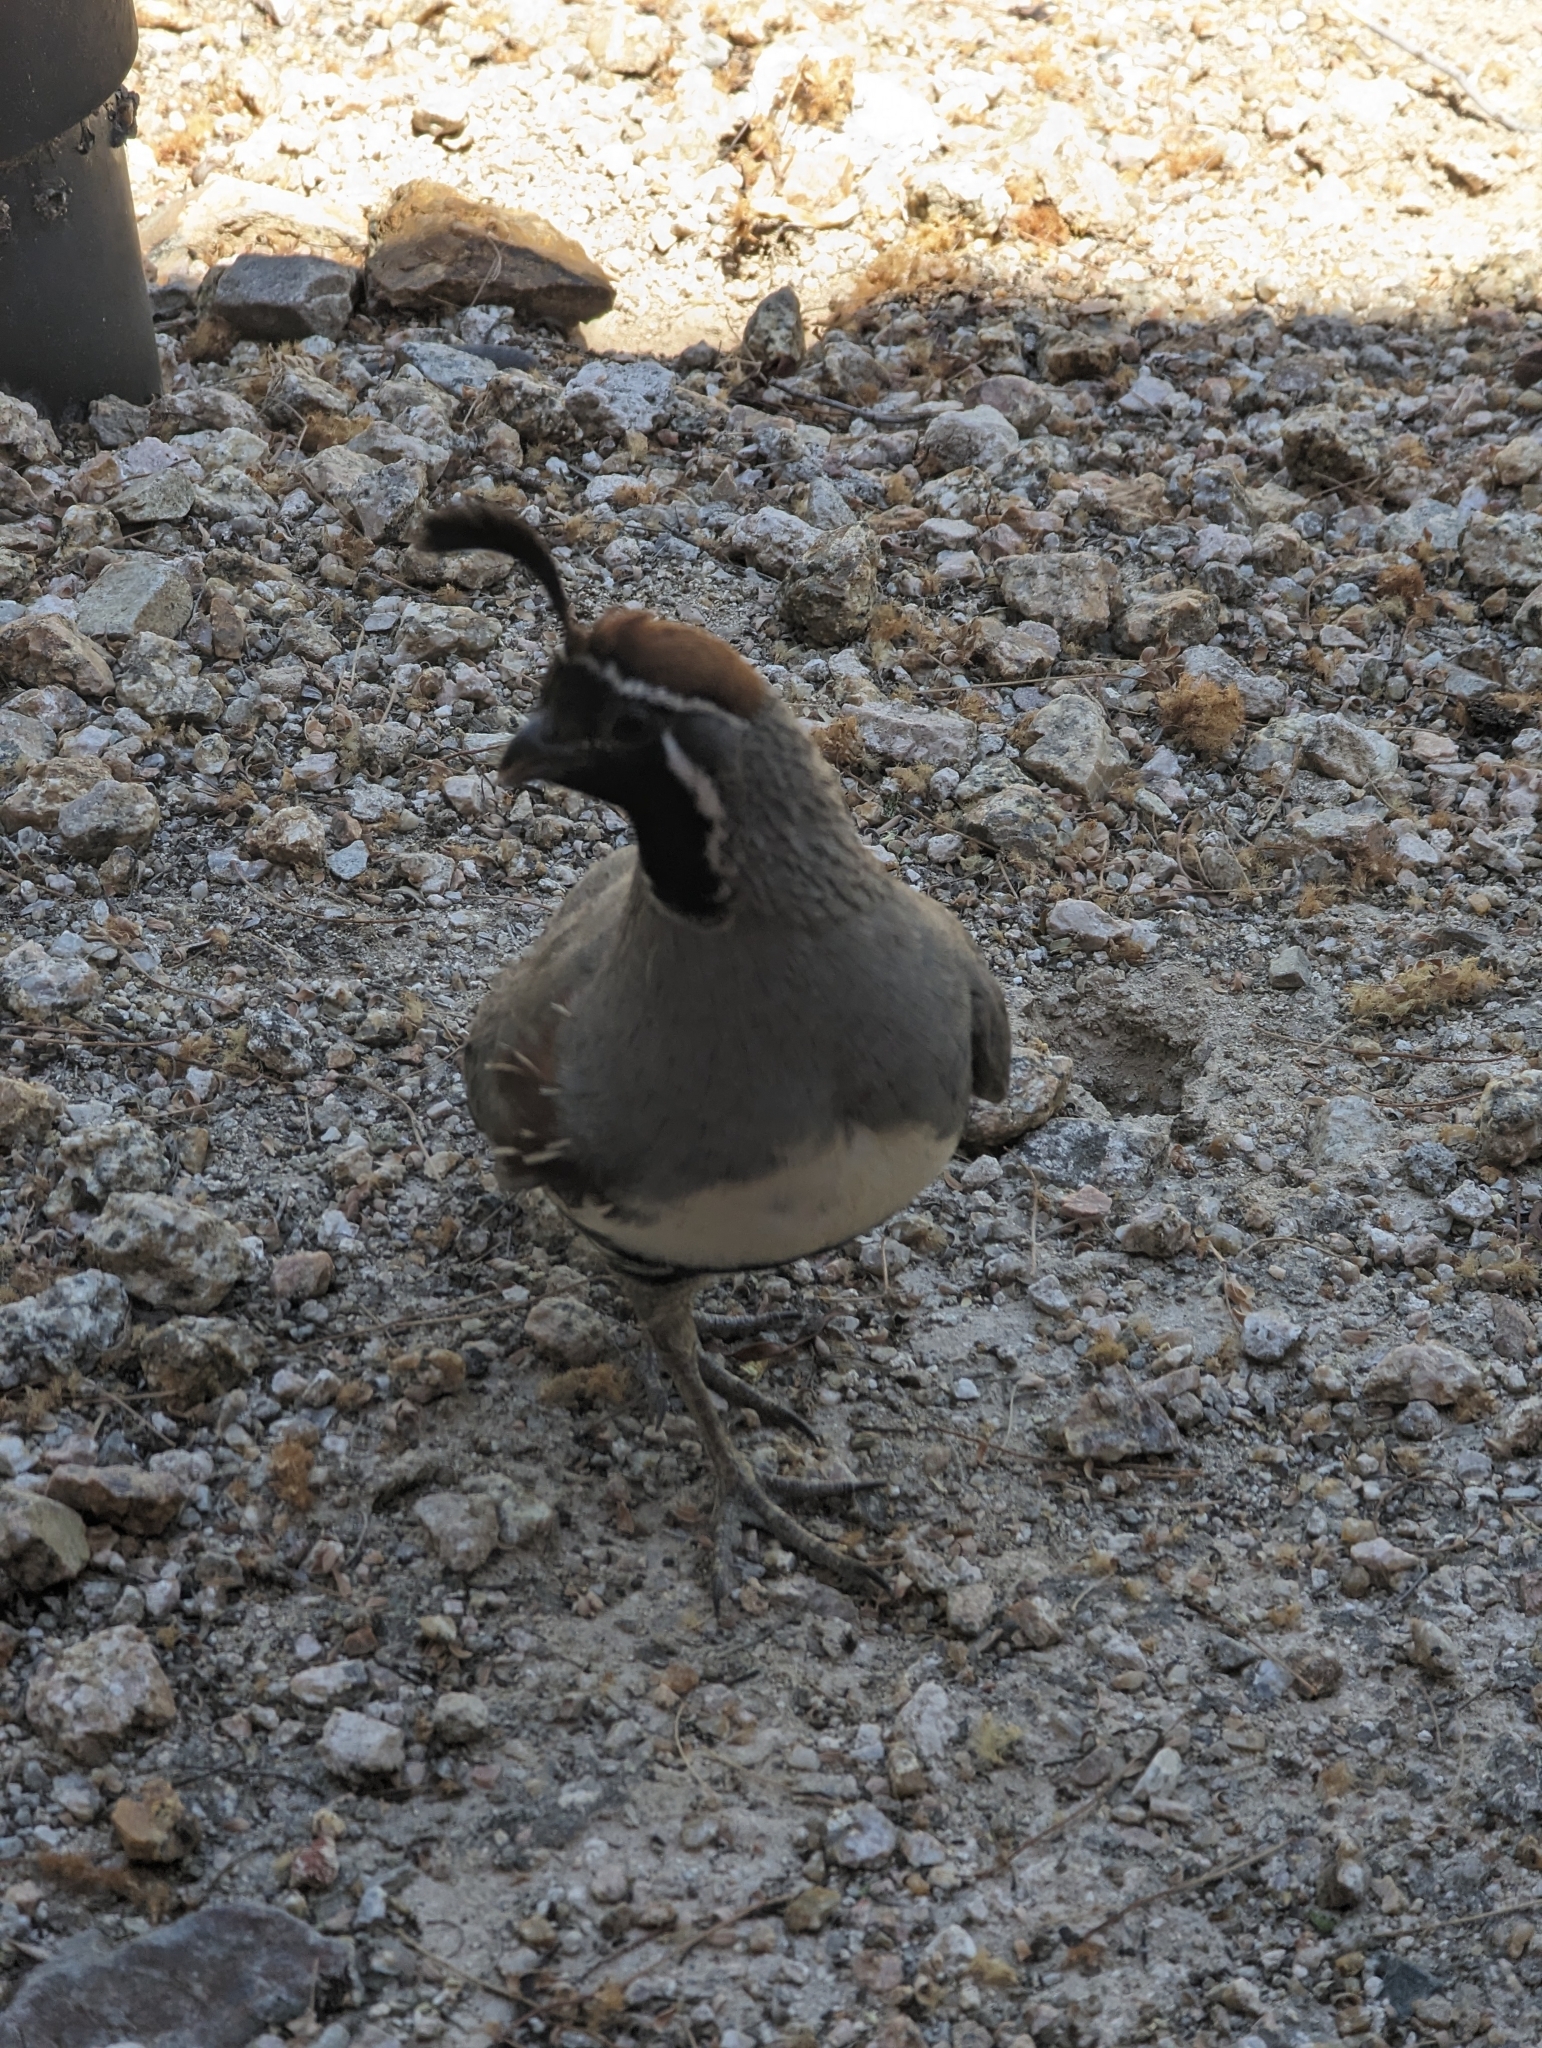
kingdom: Animalia
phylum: Chordata
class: Aves
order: Galliformes
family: Odontophoridae
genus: Callipepla
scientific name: Callipepla gambelii
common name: Gambel's quail
